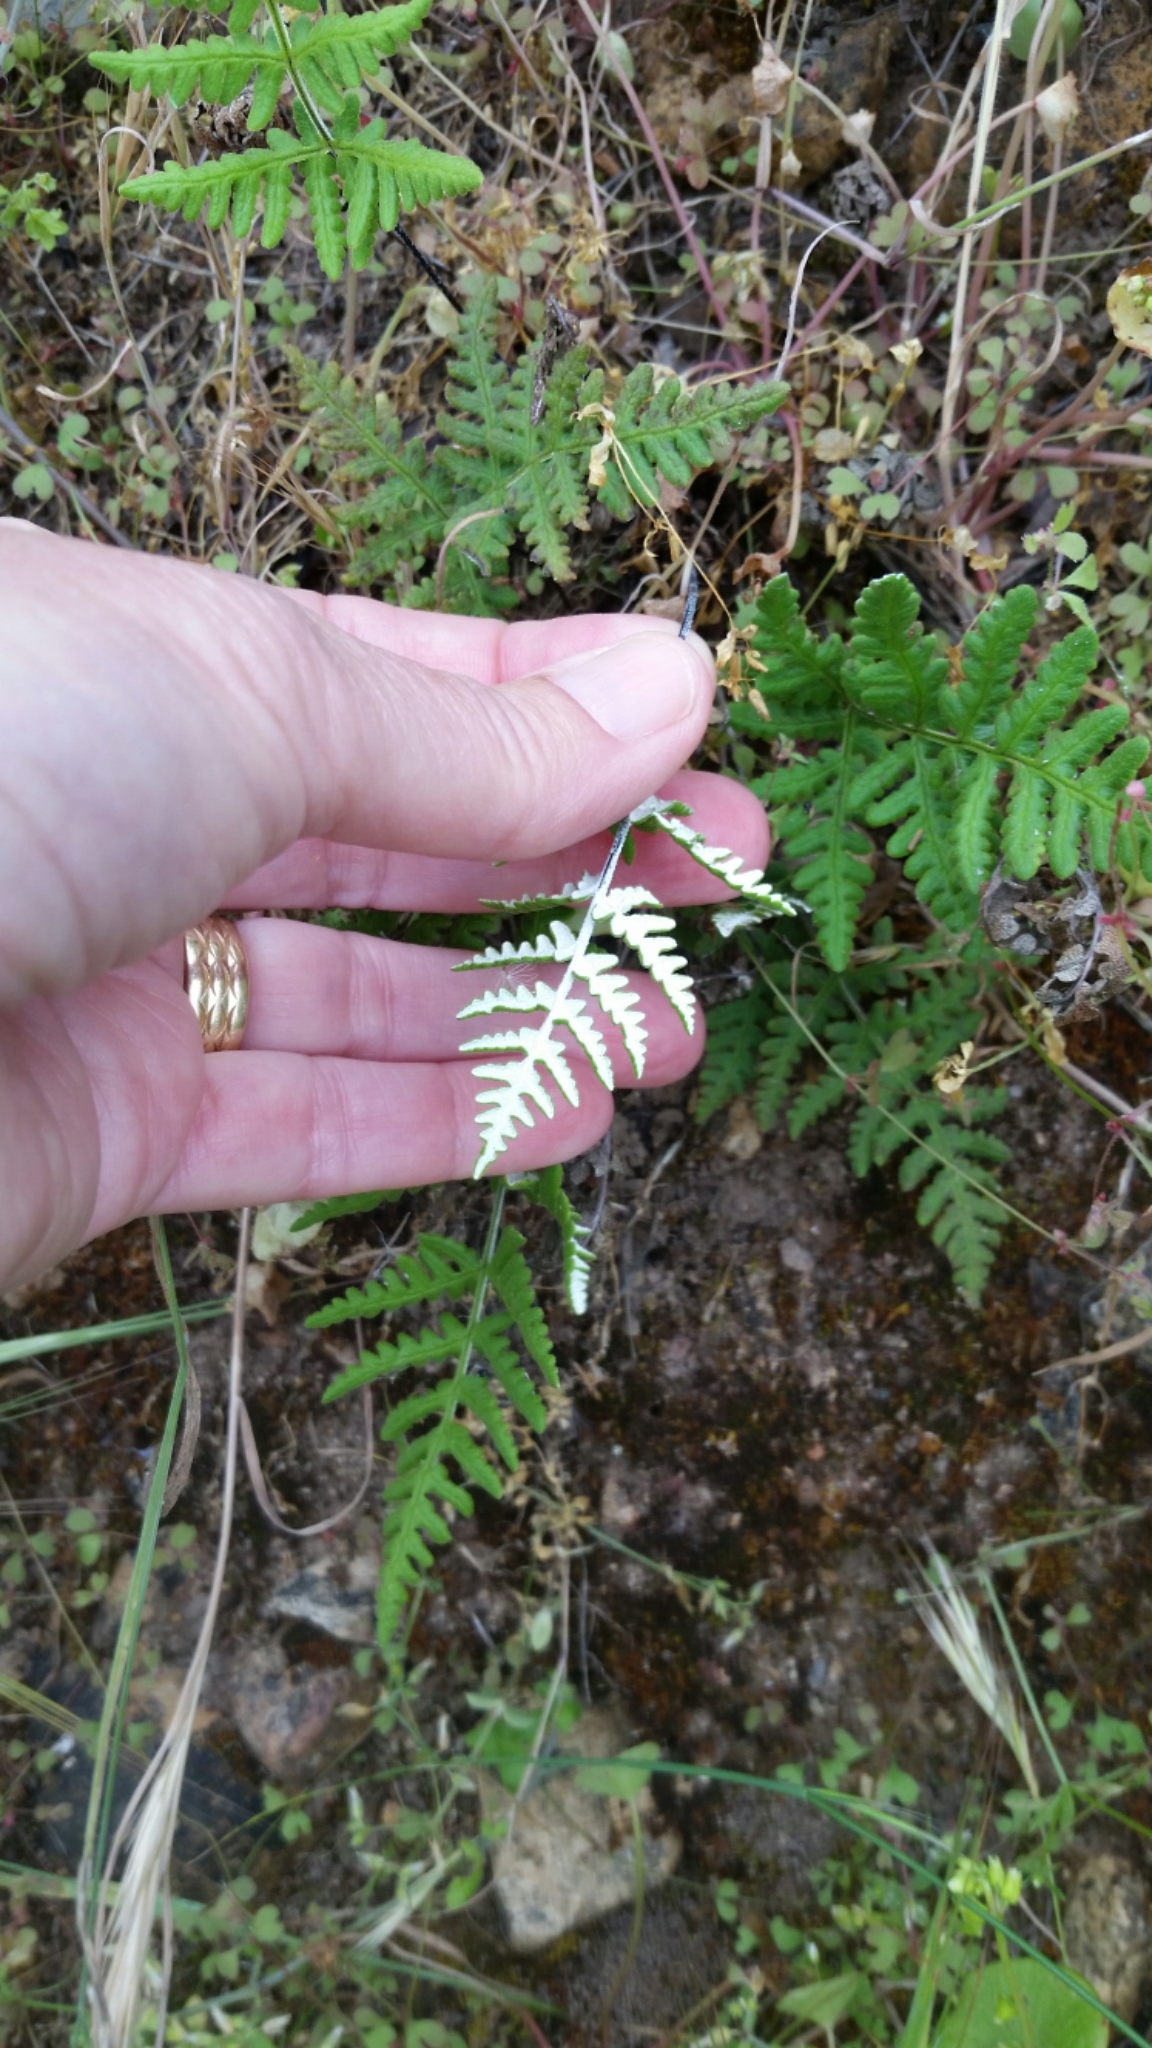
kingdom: Plantae
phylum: Tracheophyta
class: Polypodiopsida
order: Polypodiales
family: Pteridaceae
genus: Pentagramma
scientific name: Pentagramma glanduloviscida
